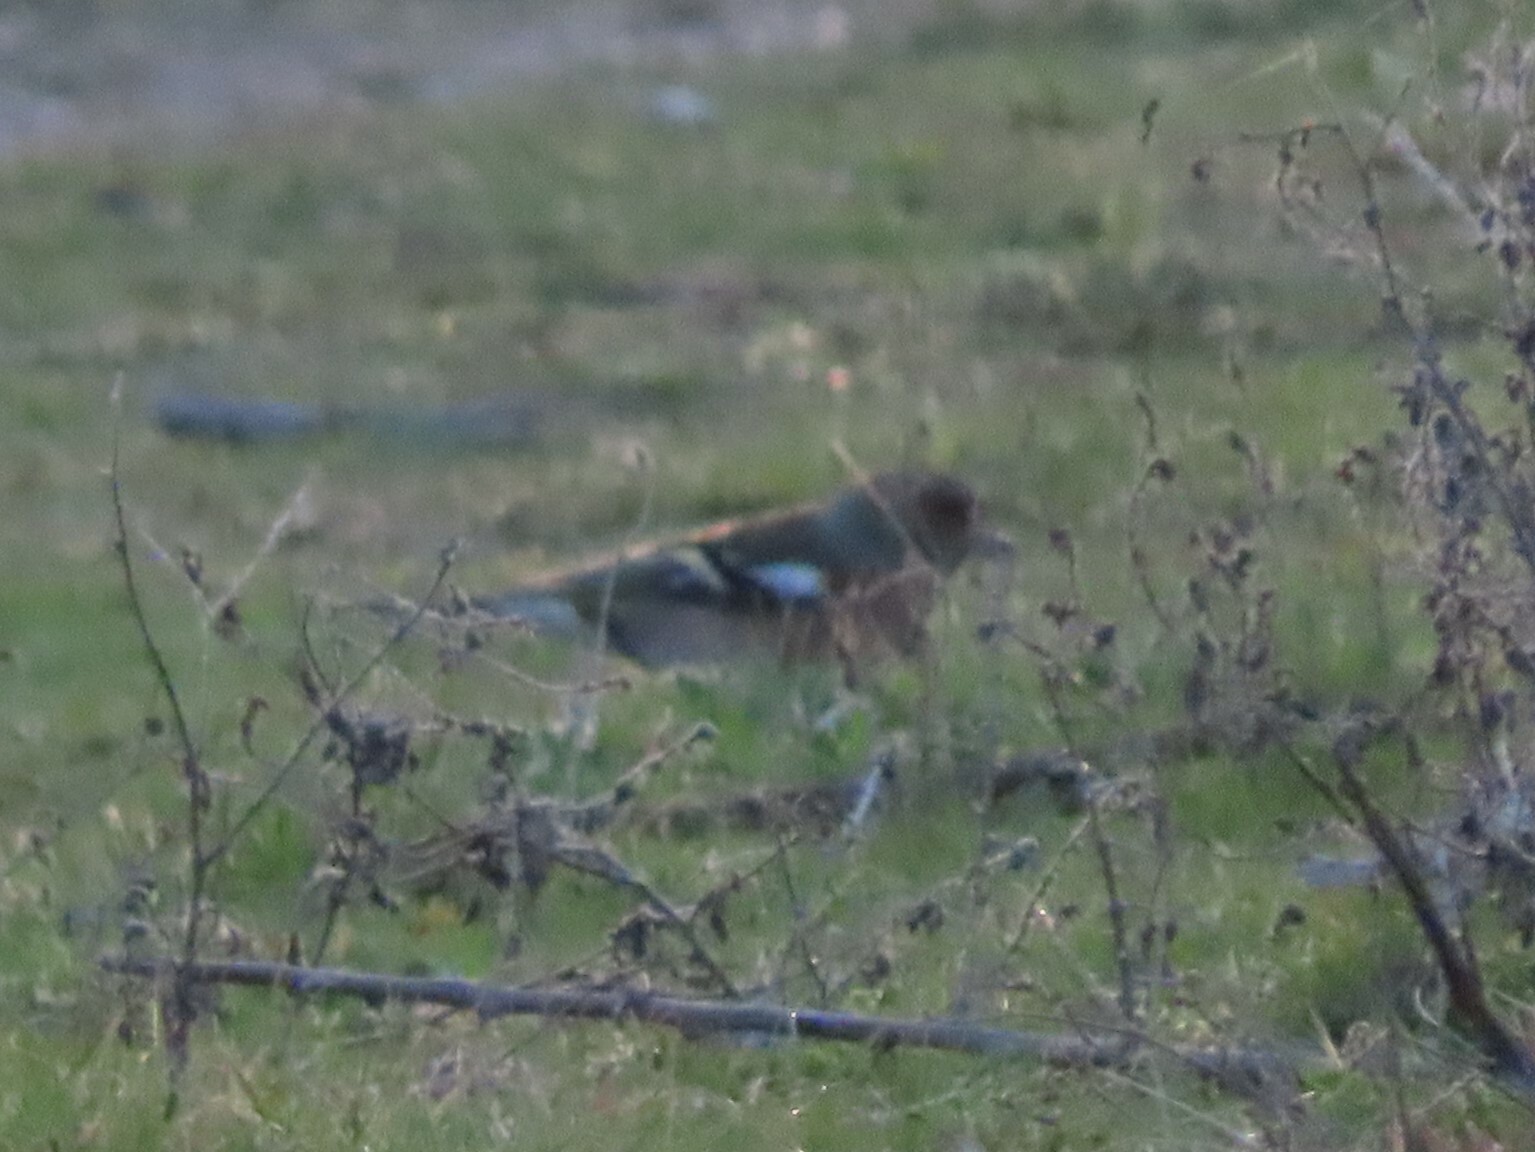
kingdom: Animalia
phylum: Chordata
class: Aves
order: Passeriformes
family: Fringillidae
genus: Fringilla
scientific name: Fringilla coelebs
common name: Common chaffinch
